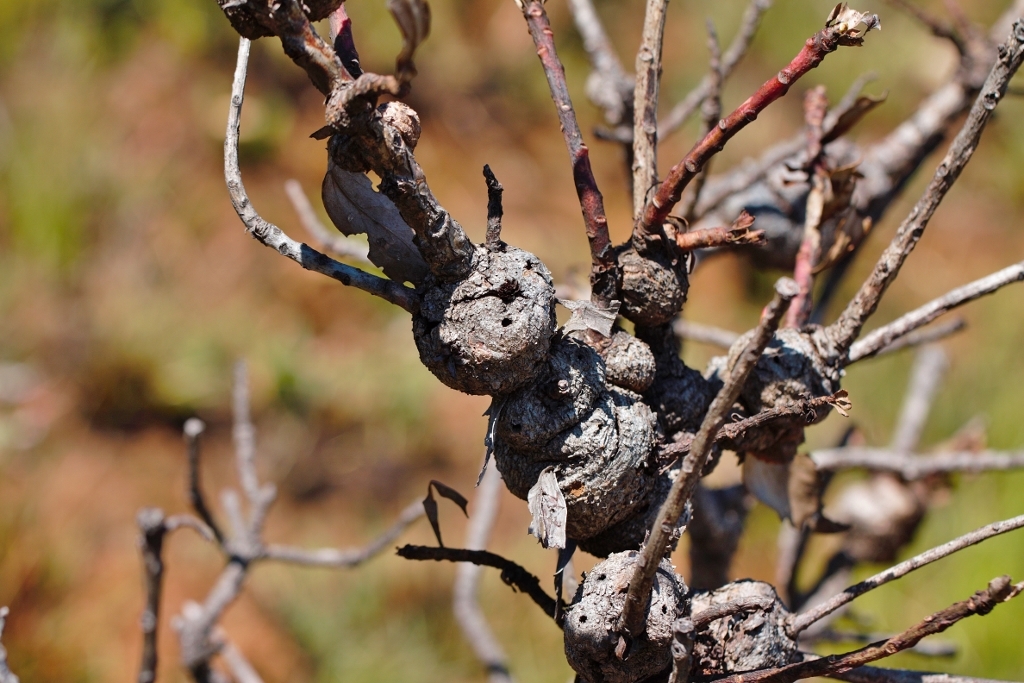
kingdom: Plantae
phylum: Tracheophyta
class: Magnoliopsida
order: Proteales
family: Proteaceae
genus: Protea
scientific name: Protea caffra
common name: Common sugarbush
